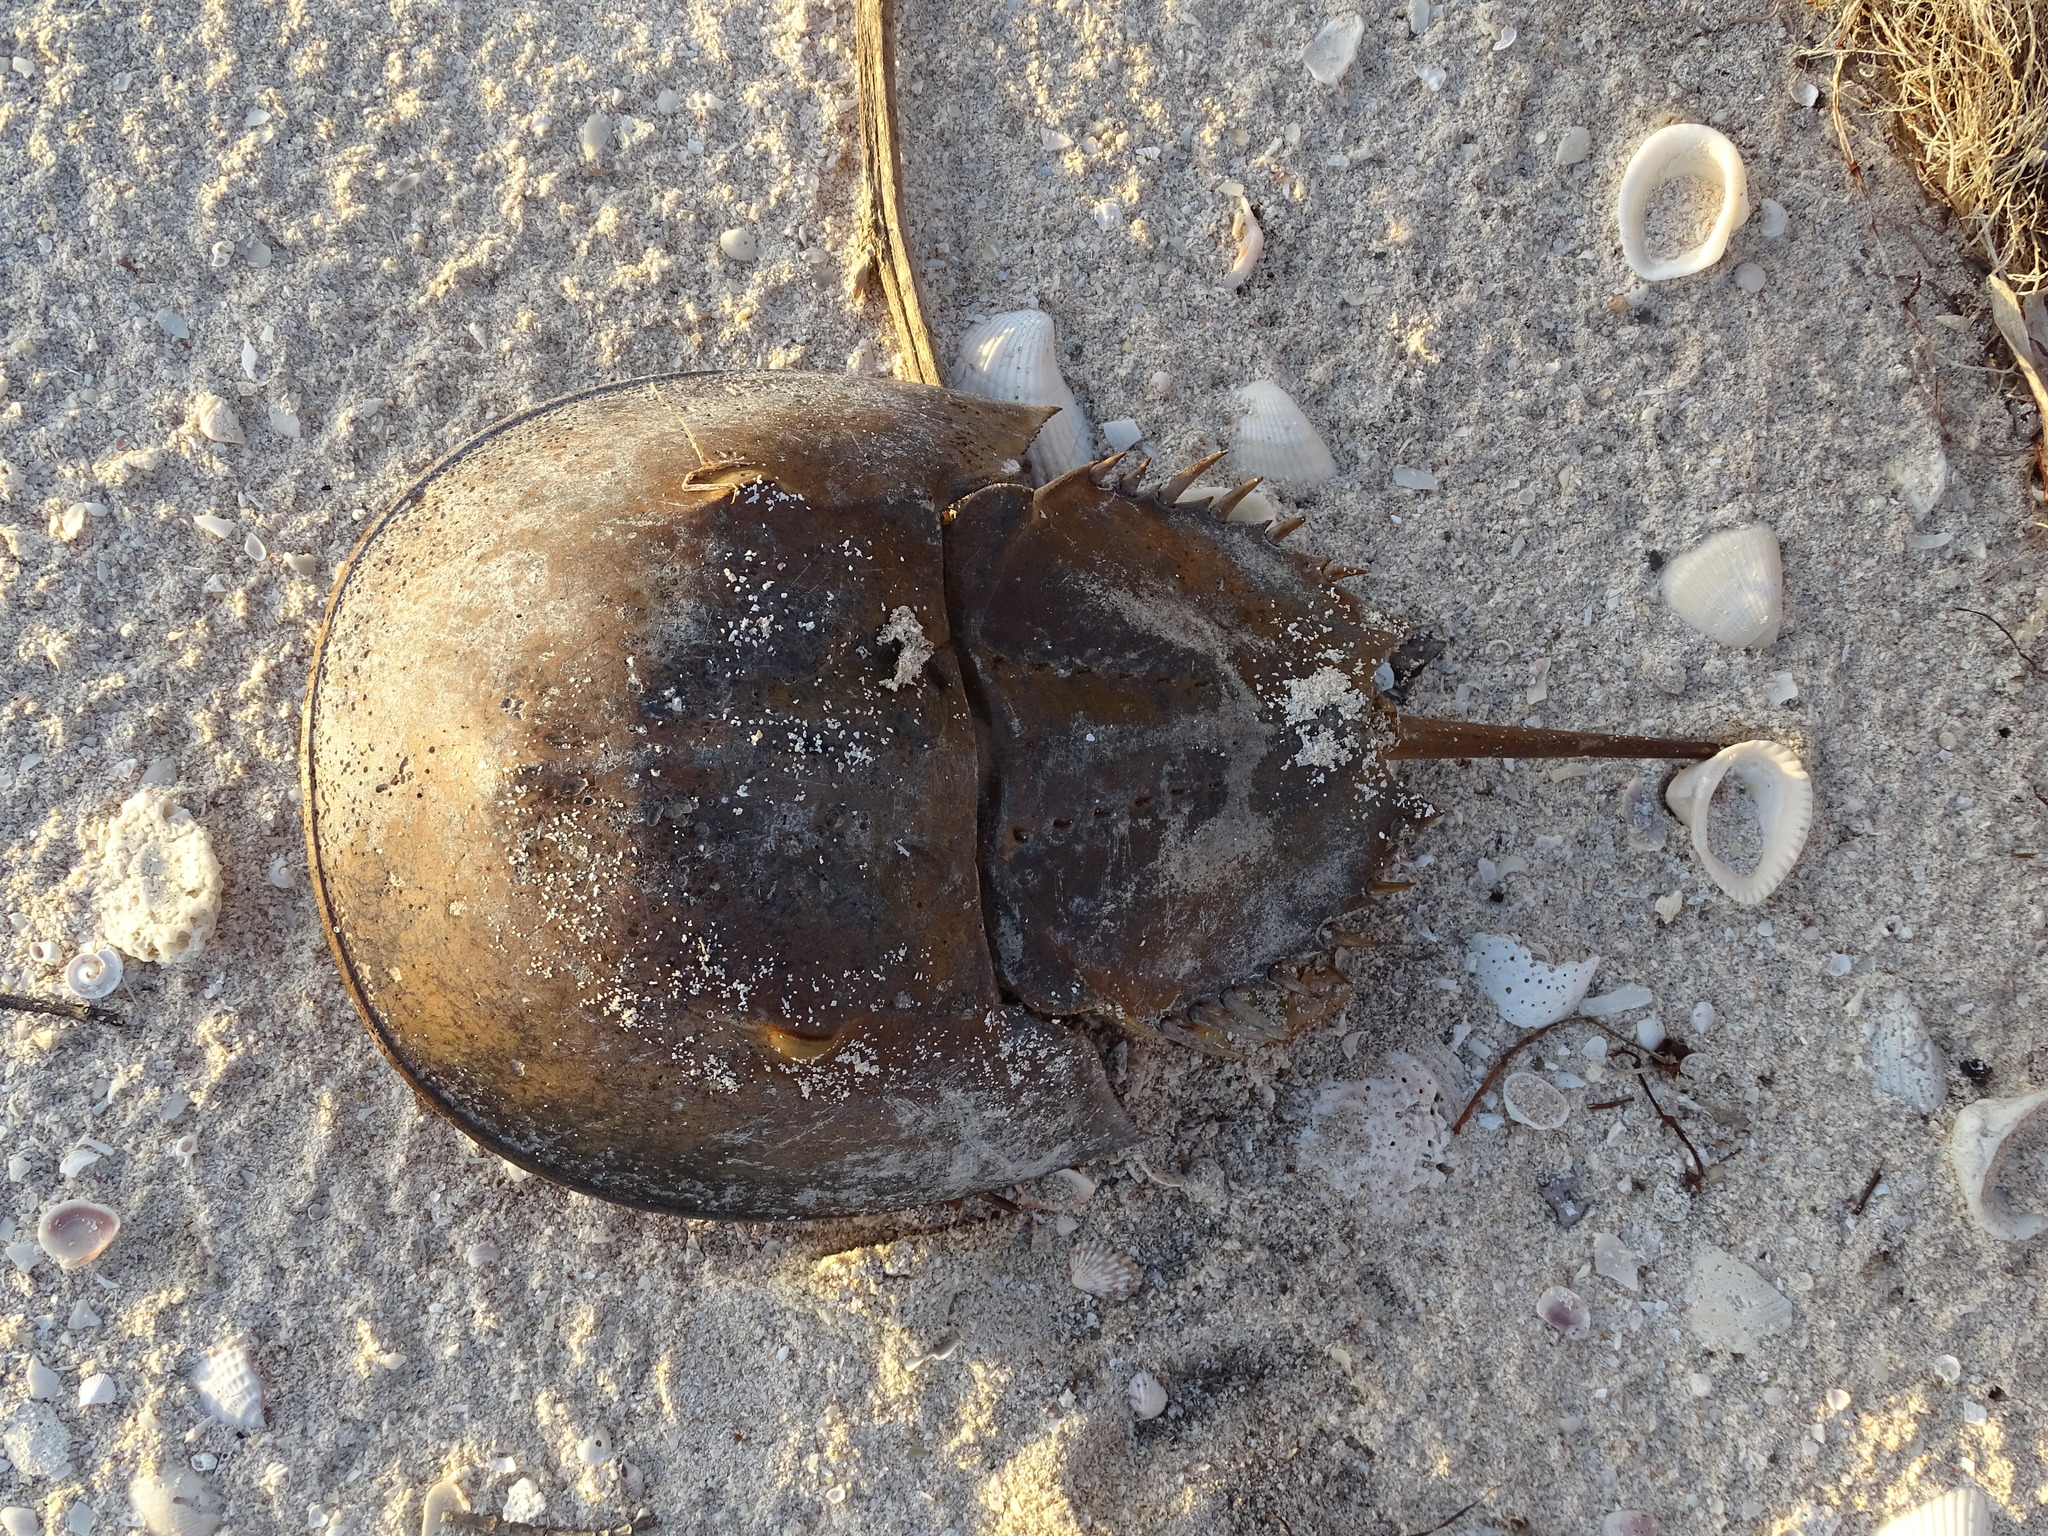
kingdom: Animalia
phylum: Arthropoda
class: Merostomata
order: Xiphosurida
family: Limulidae
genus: Limulus
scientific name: Limulus polyphemus
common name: Horseshoe crab
